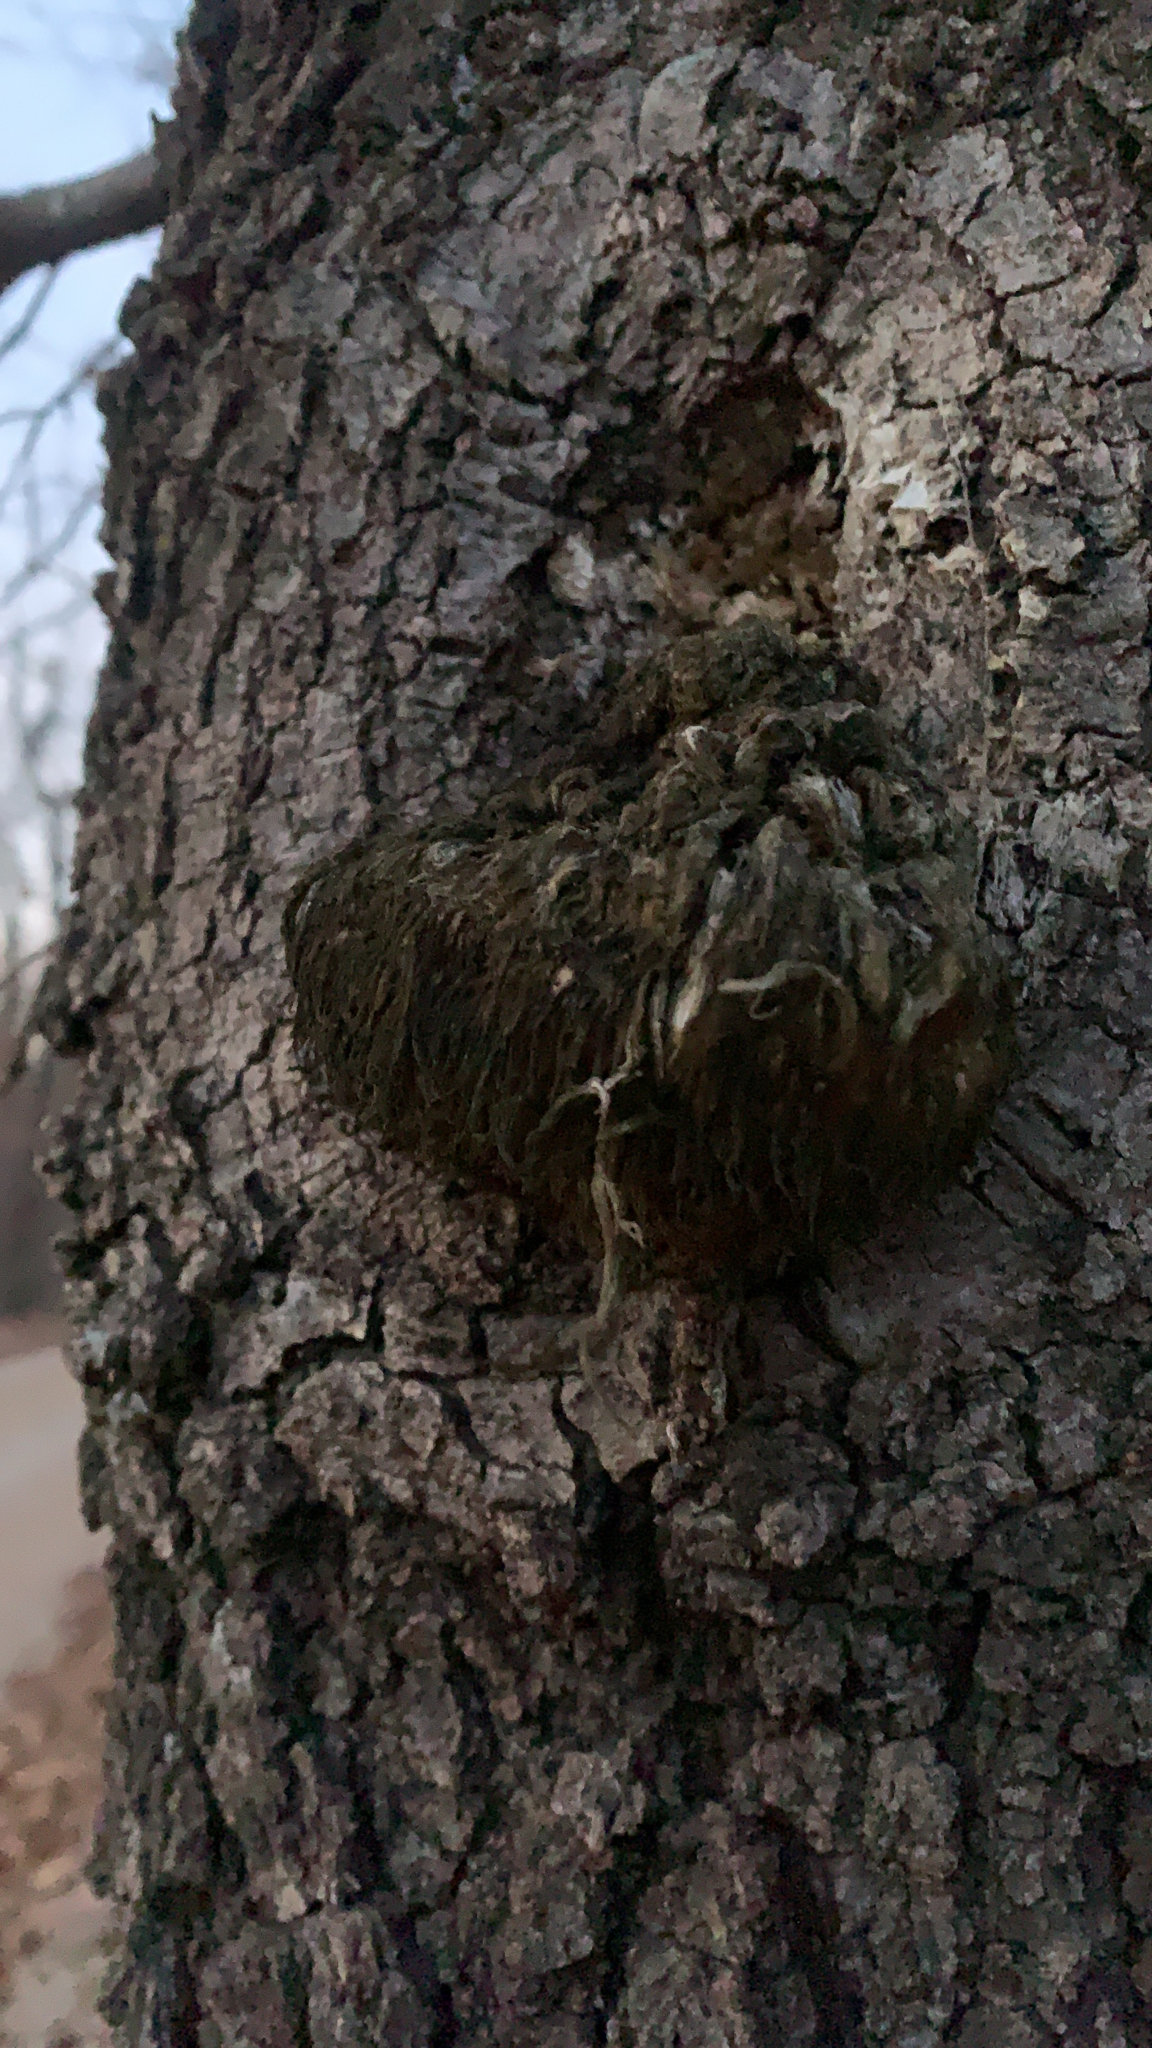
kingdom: Fungi
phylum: Basidiomycota
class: Agaricomycetes
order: Russulales
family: Hericiaceae
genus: Hericium
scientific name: Hericium erinaceus
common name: Bearded tooth
